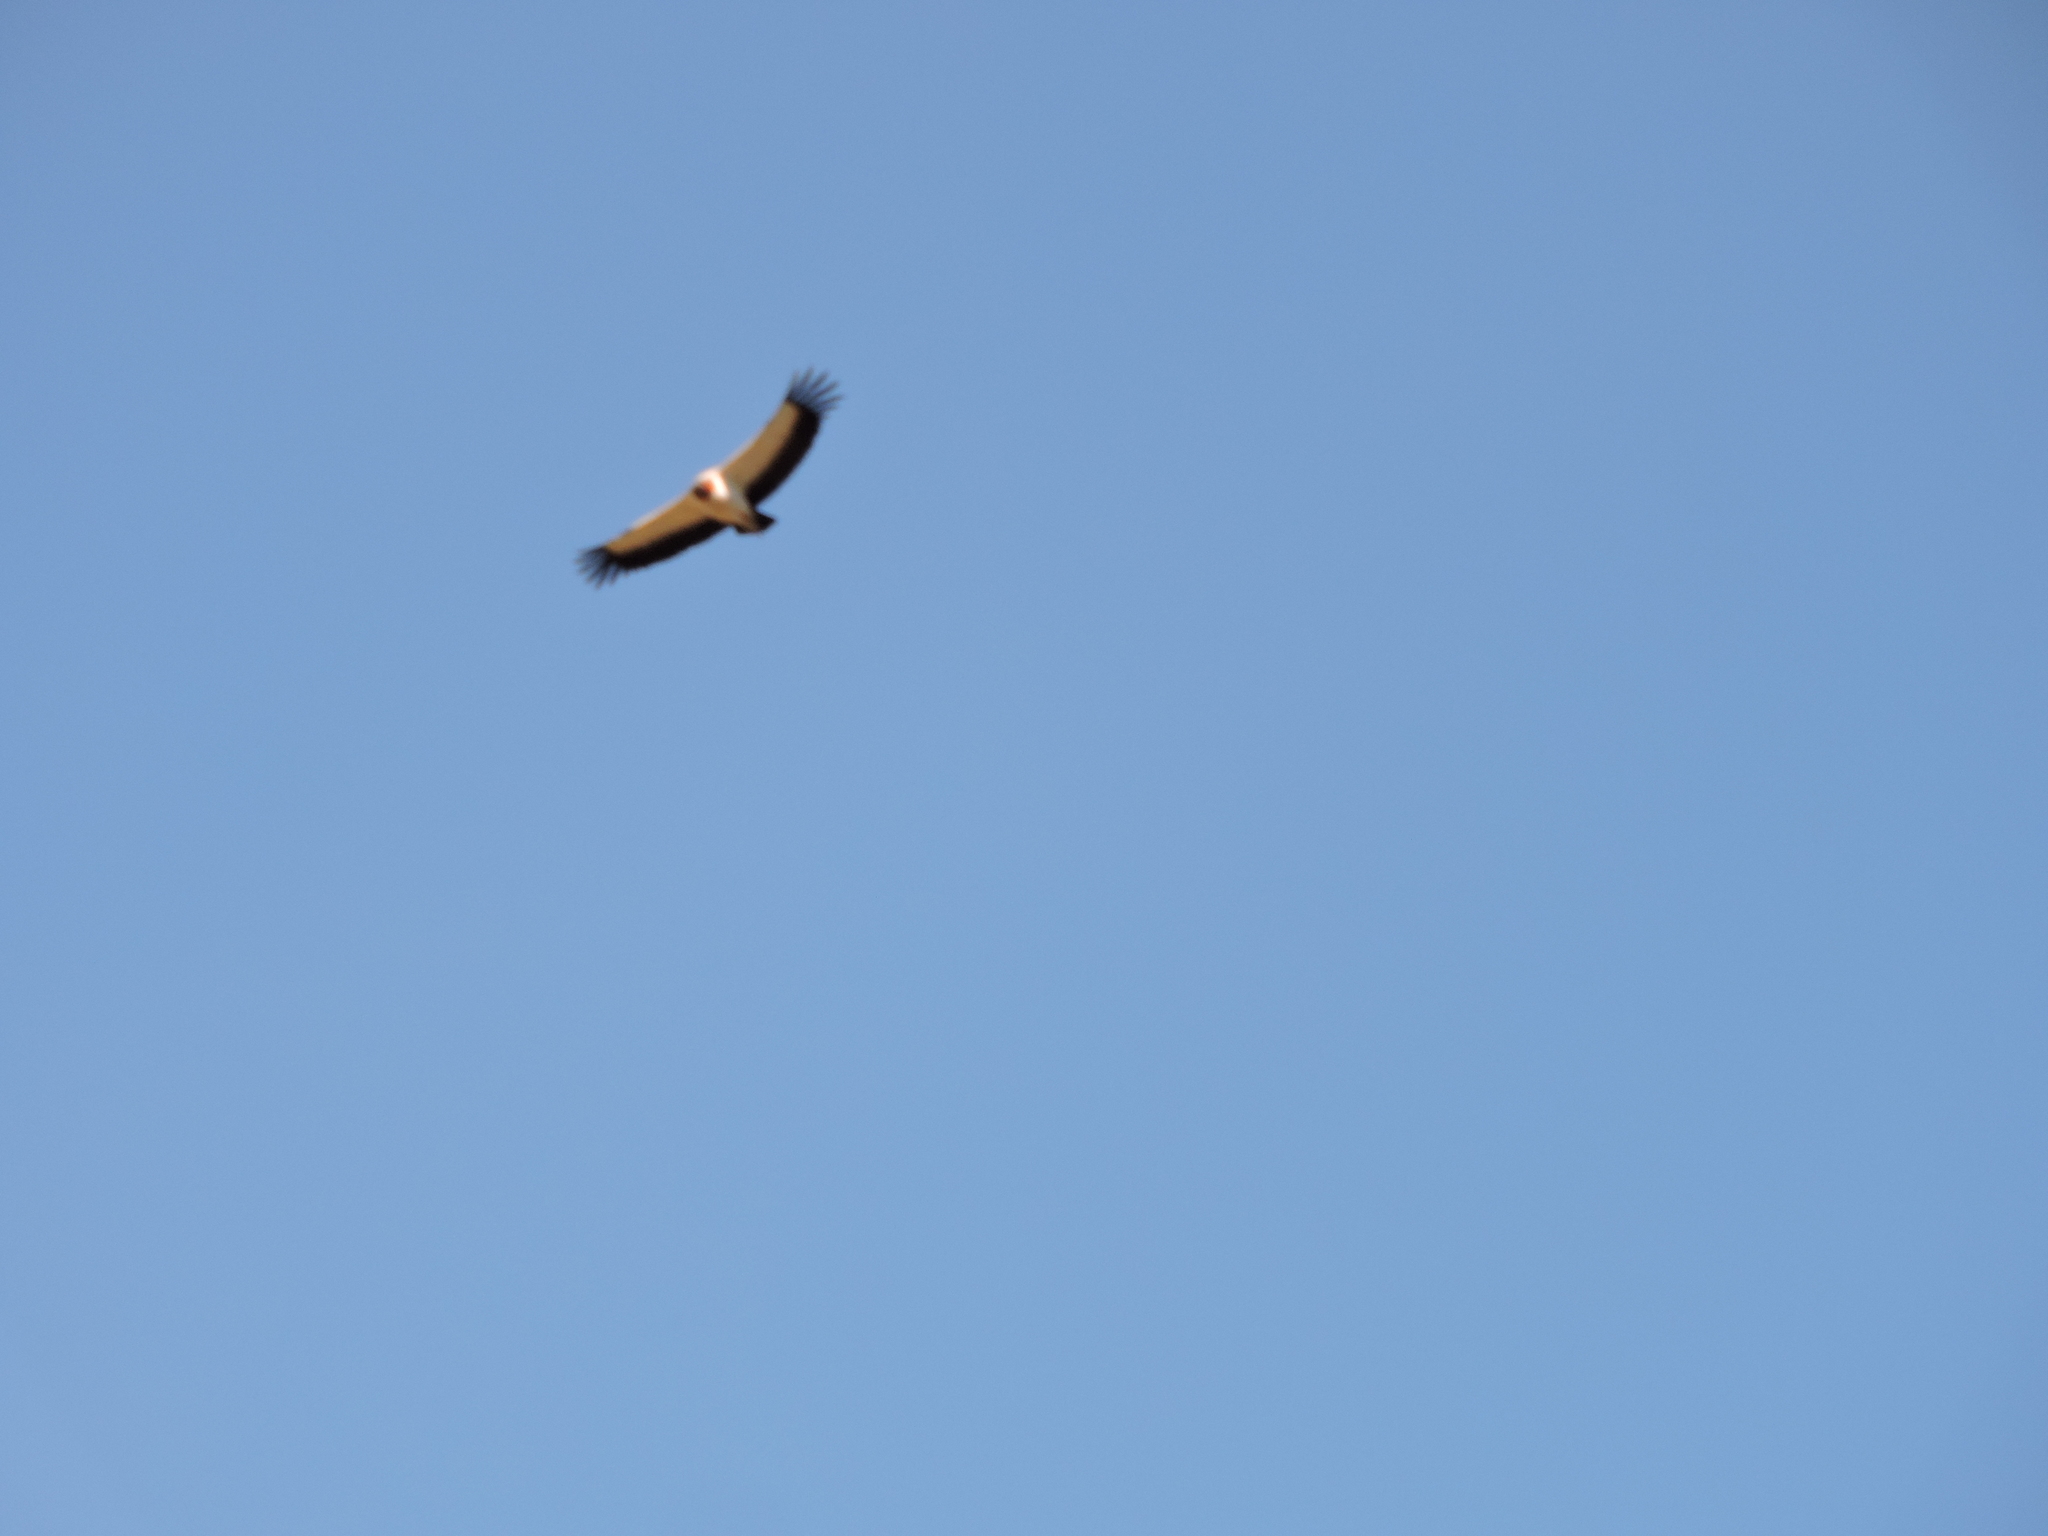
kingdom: Animalia
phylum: Chordata
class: Aves
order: Accipitriformes
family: Cathartidae
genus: Sarcoramphus
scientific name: Sarcoramphus papa
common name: King vulture
